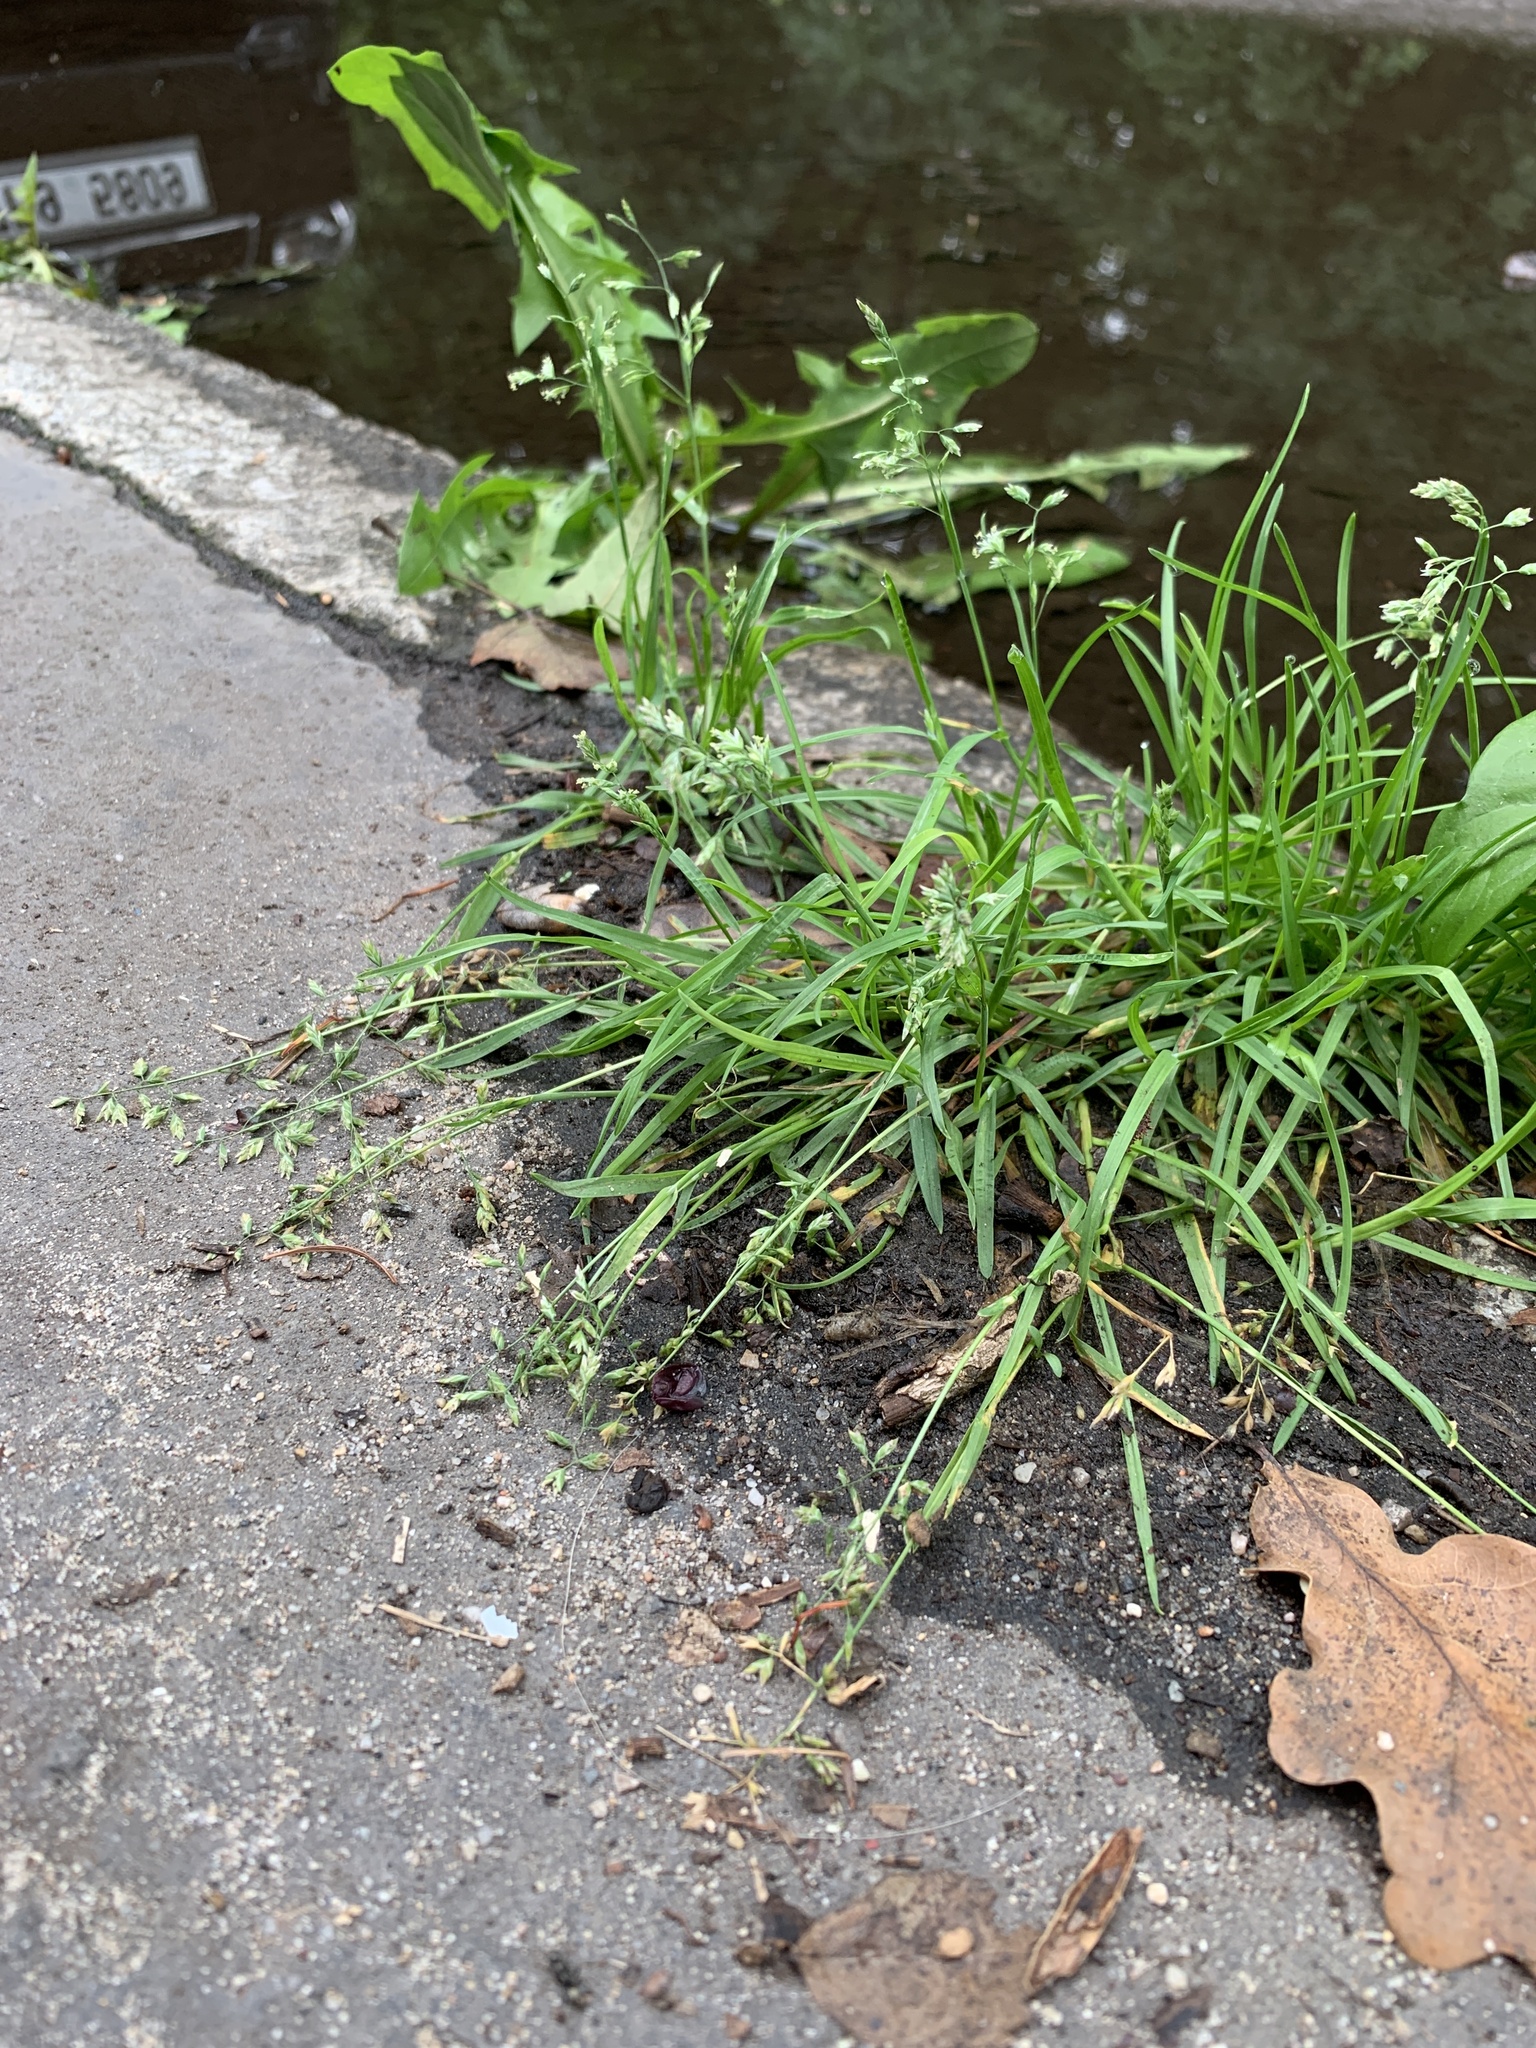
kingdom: Plantae
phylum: Tracheophyta
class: Liliopsida
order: Poales
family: Poaceae
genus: Poa
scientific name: Poa annua
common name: Annual bluegrass
